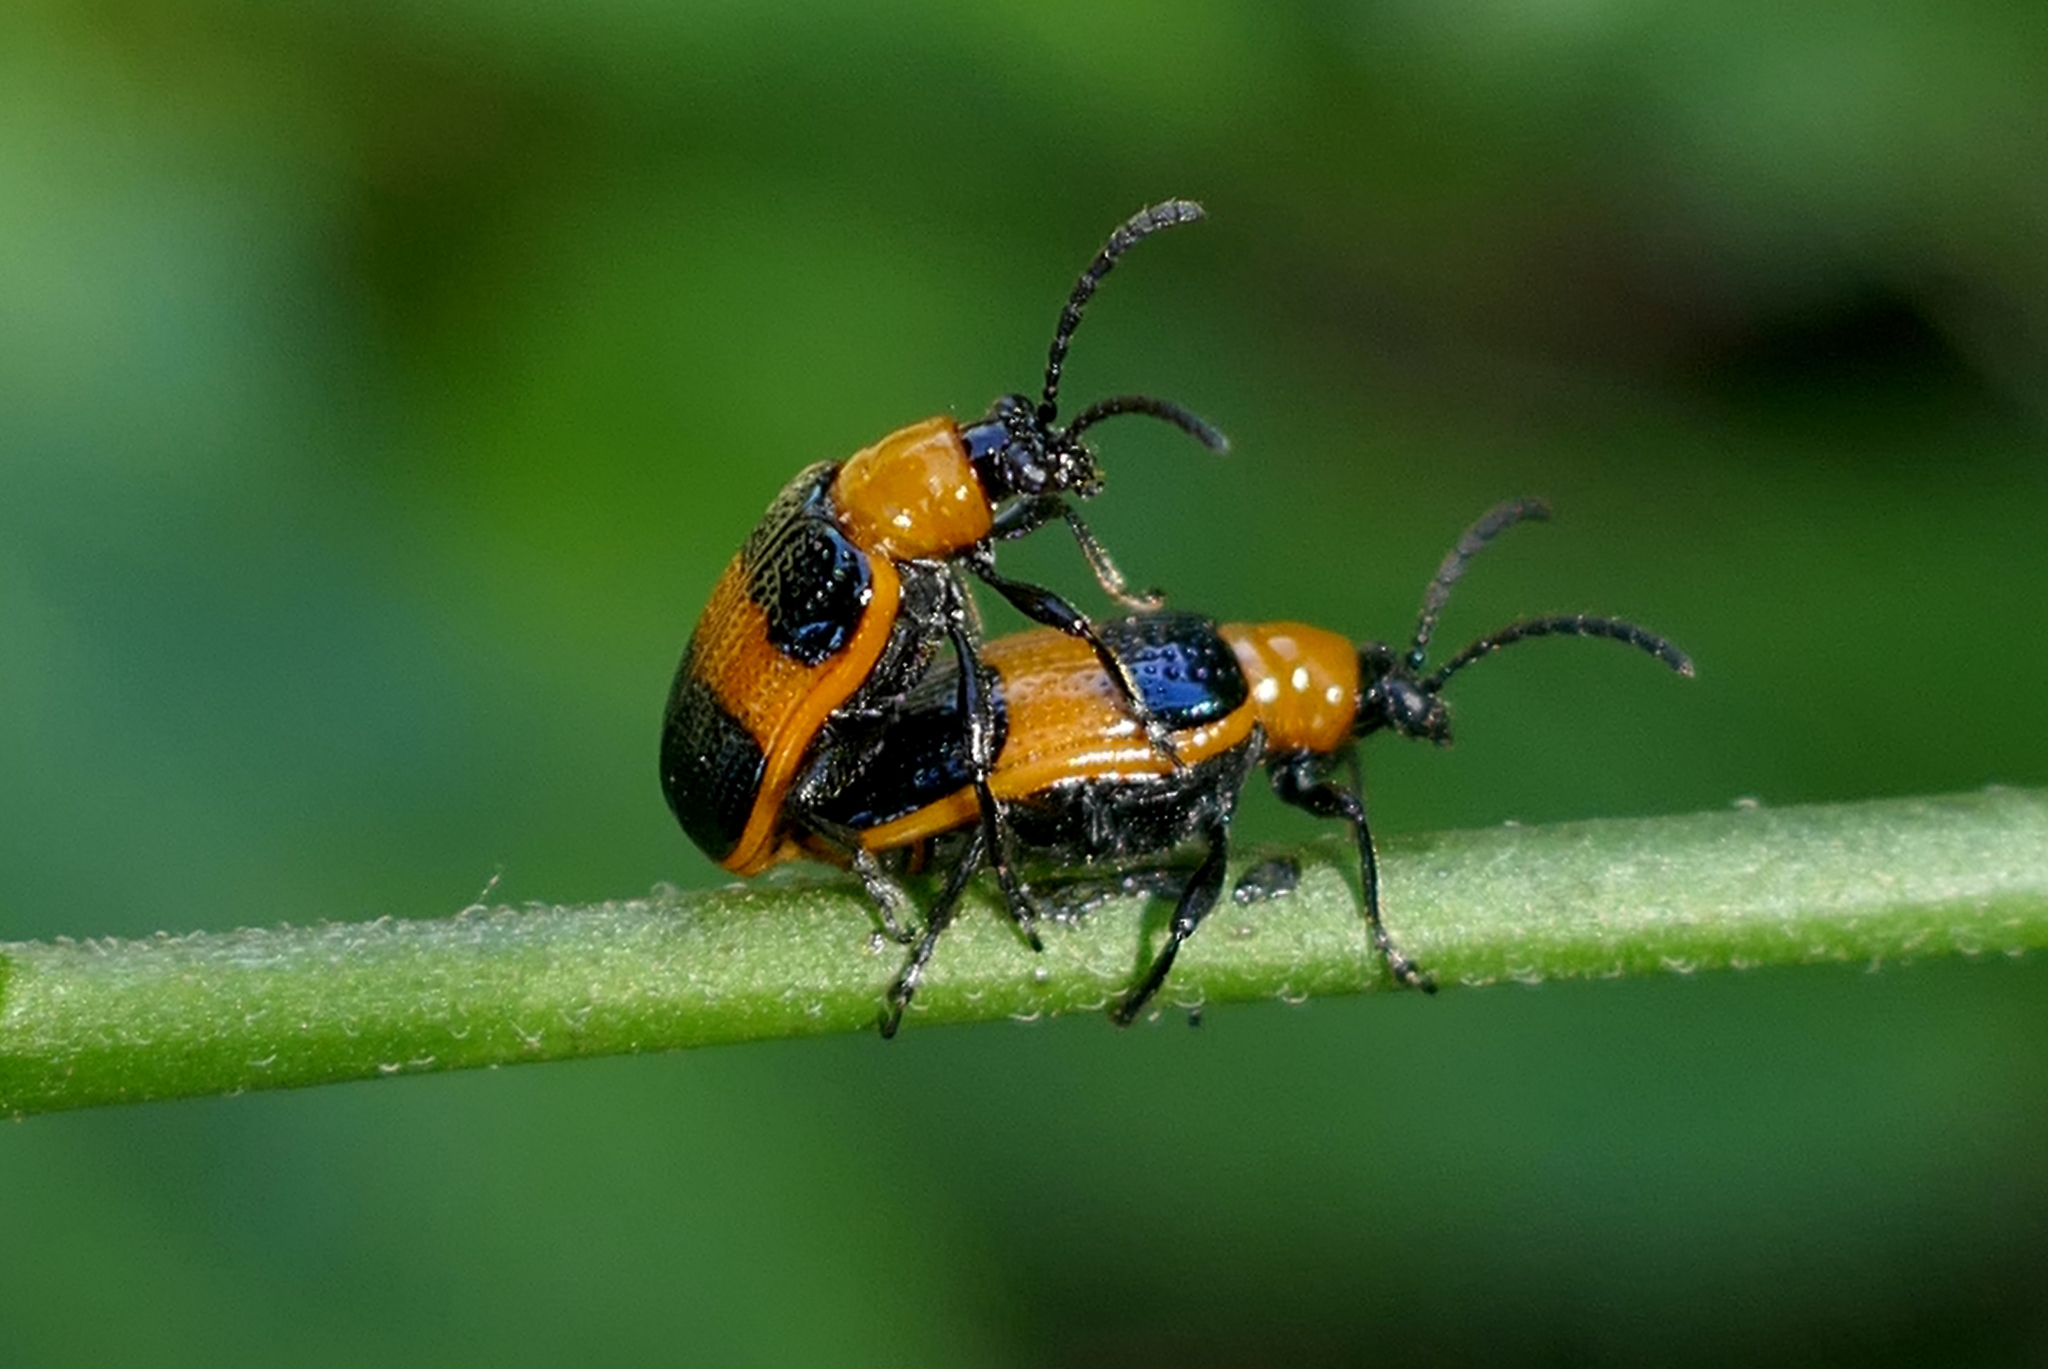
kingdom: Animalia
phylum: Arthropoda
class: Insecta
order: Coleoptera
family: Chrysomelidae
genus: Lema
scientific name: Lema solani
